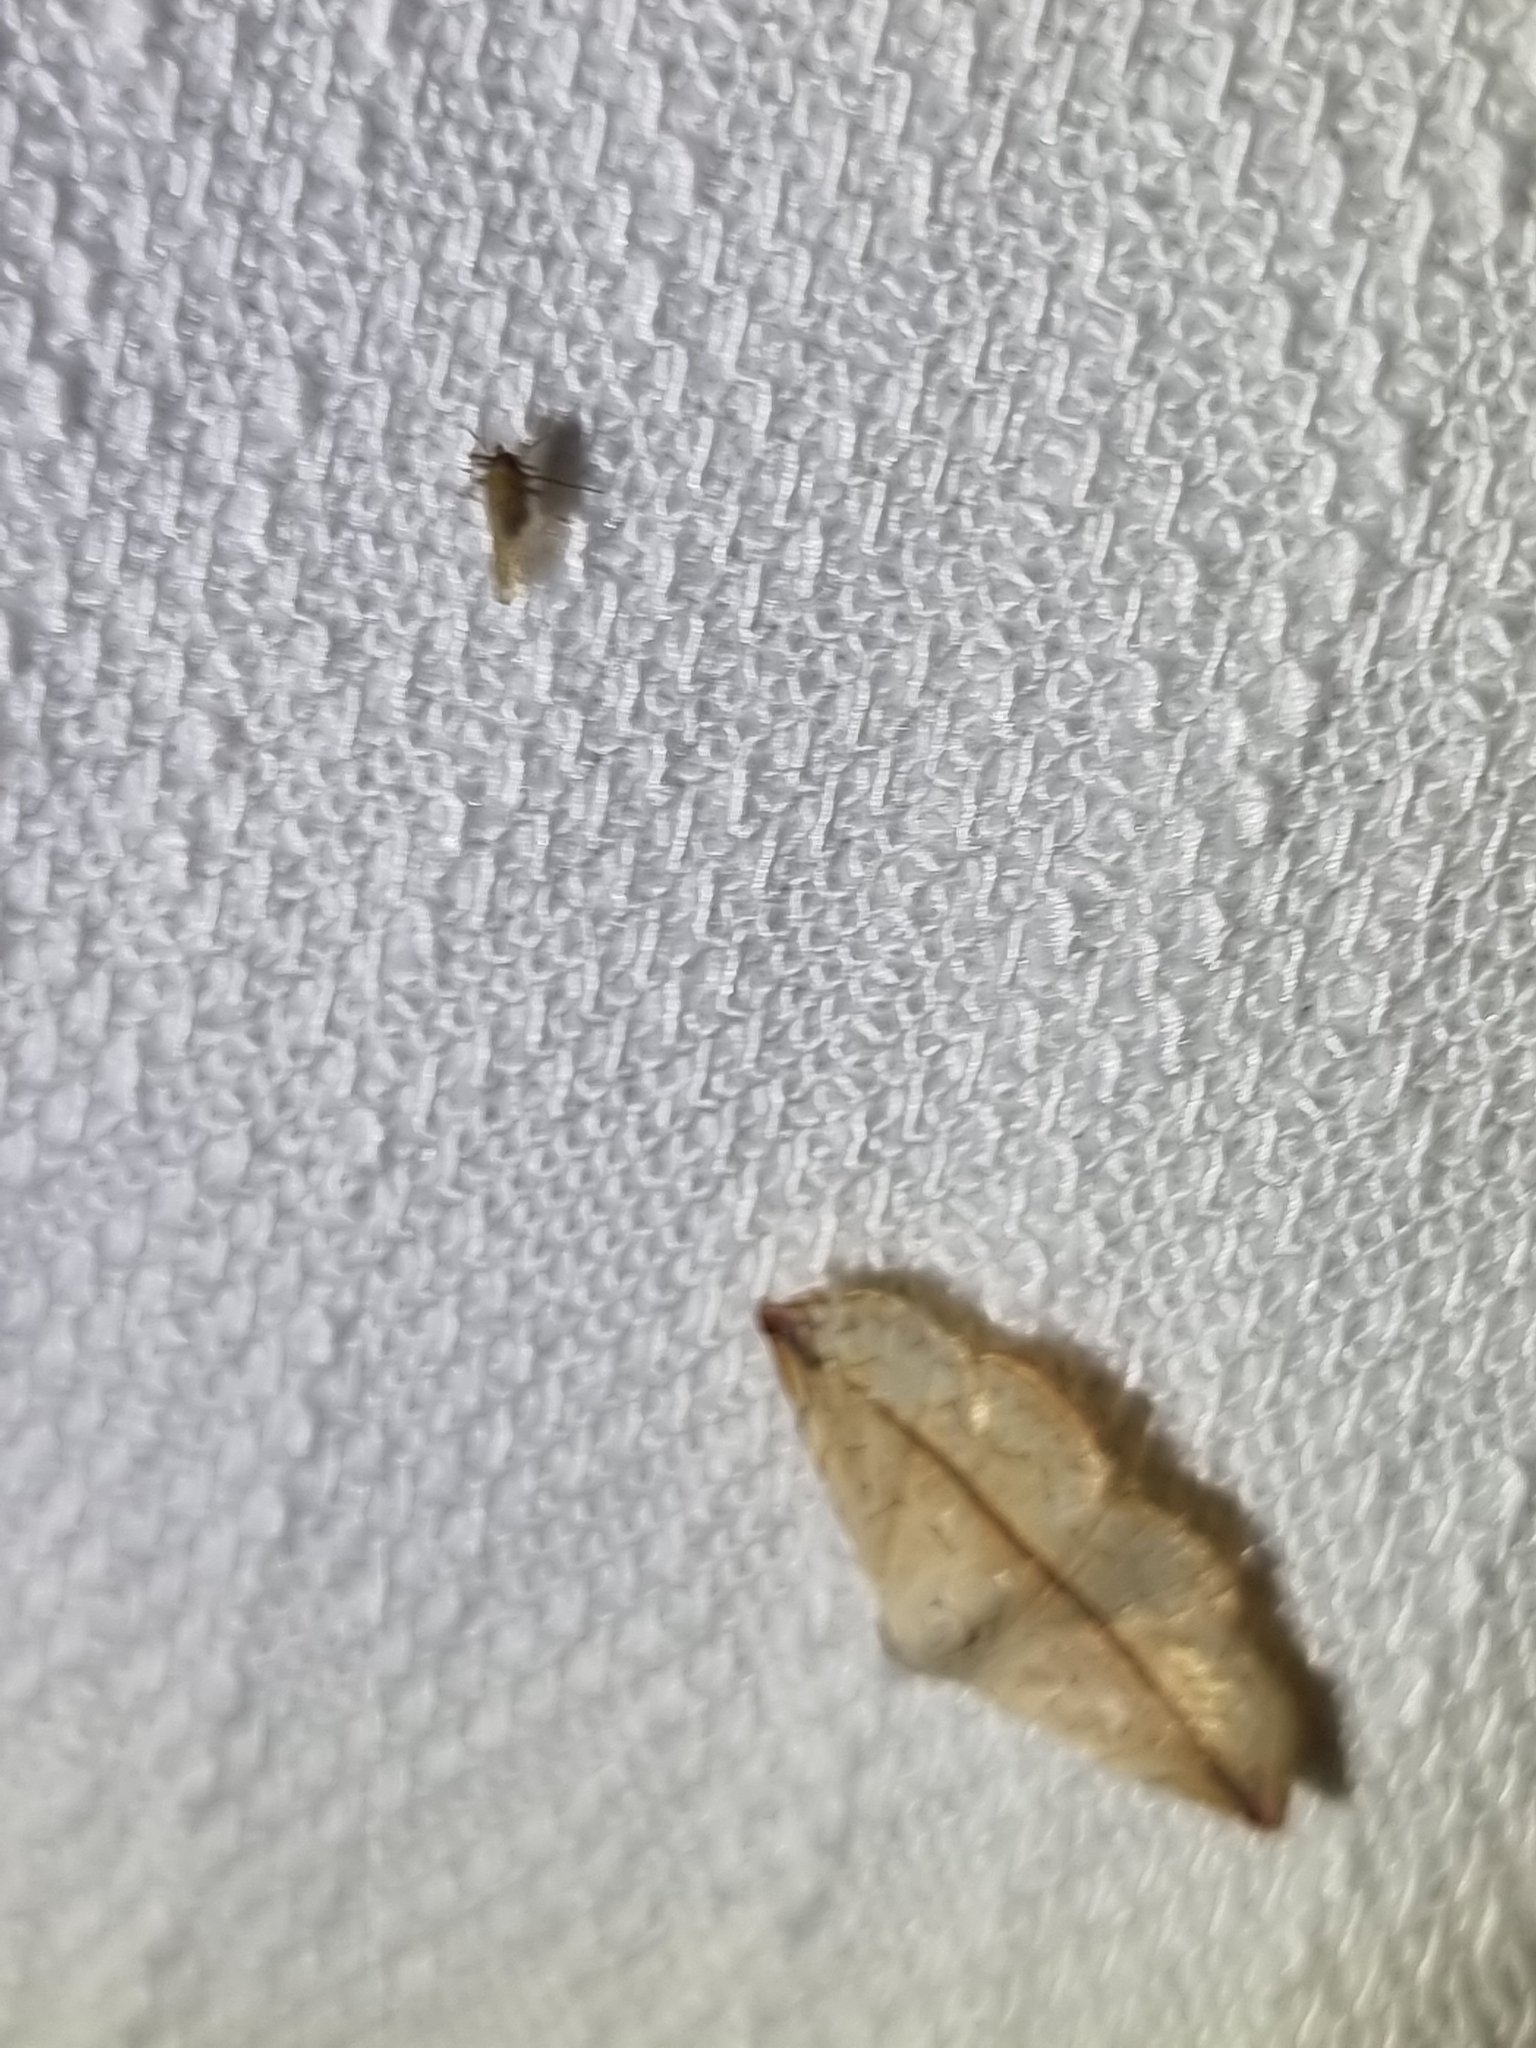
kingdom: Animalia
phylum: Arthropoda
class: Insecta
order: Lepidoptera
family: Noctuidae
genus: Eublemma
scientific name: Eublemma perversicolor
